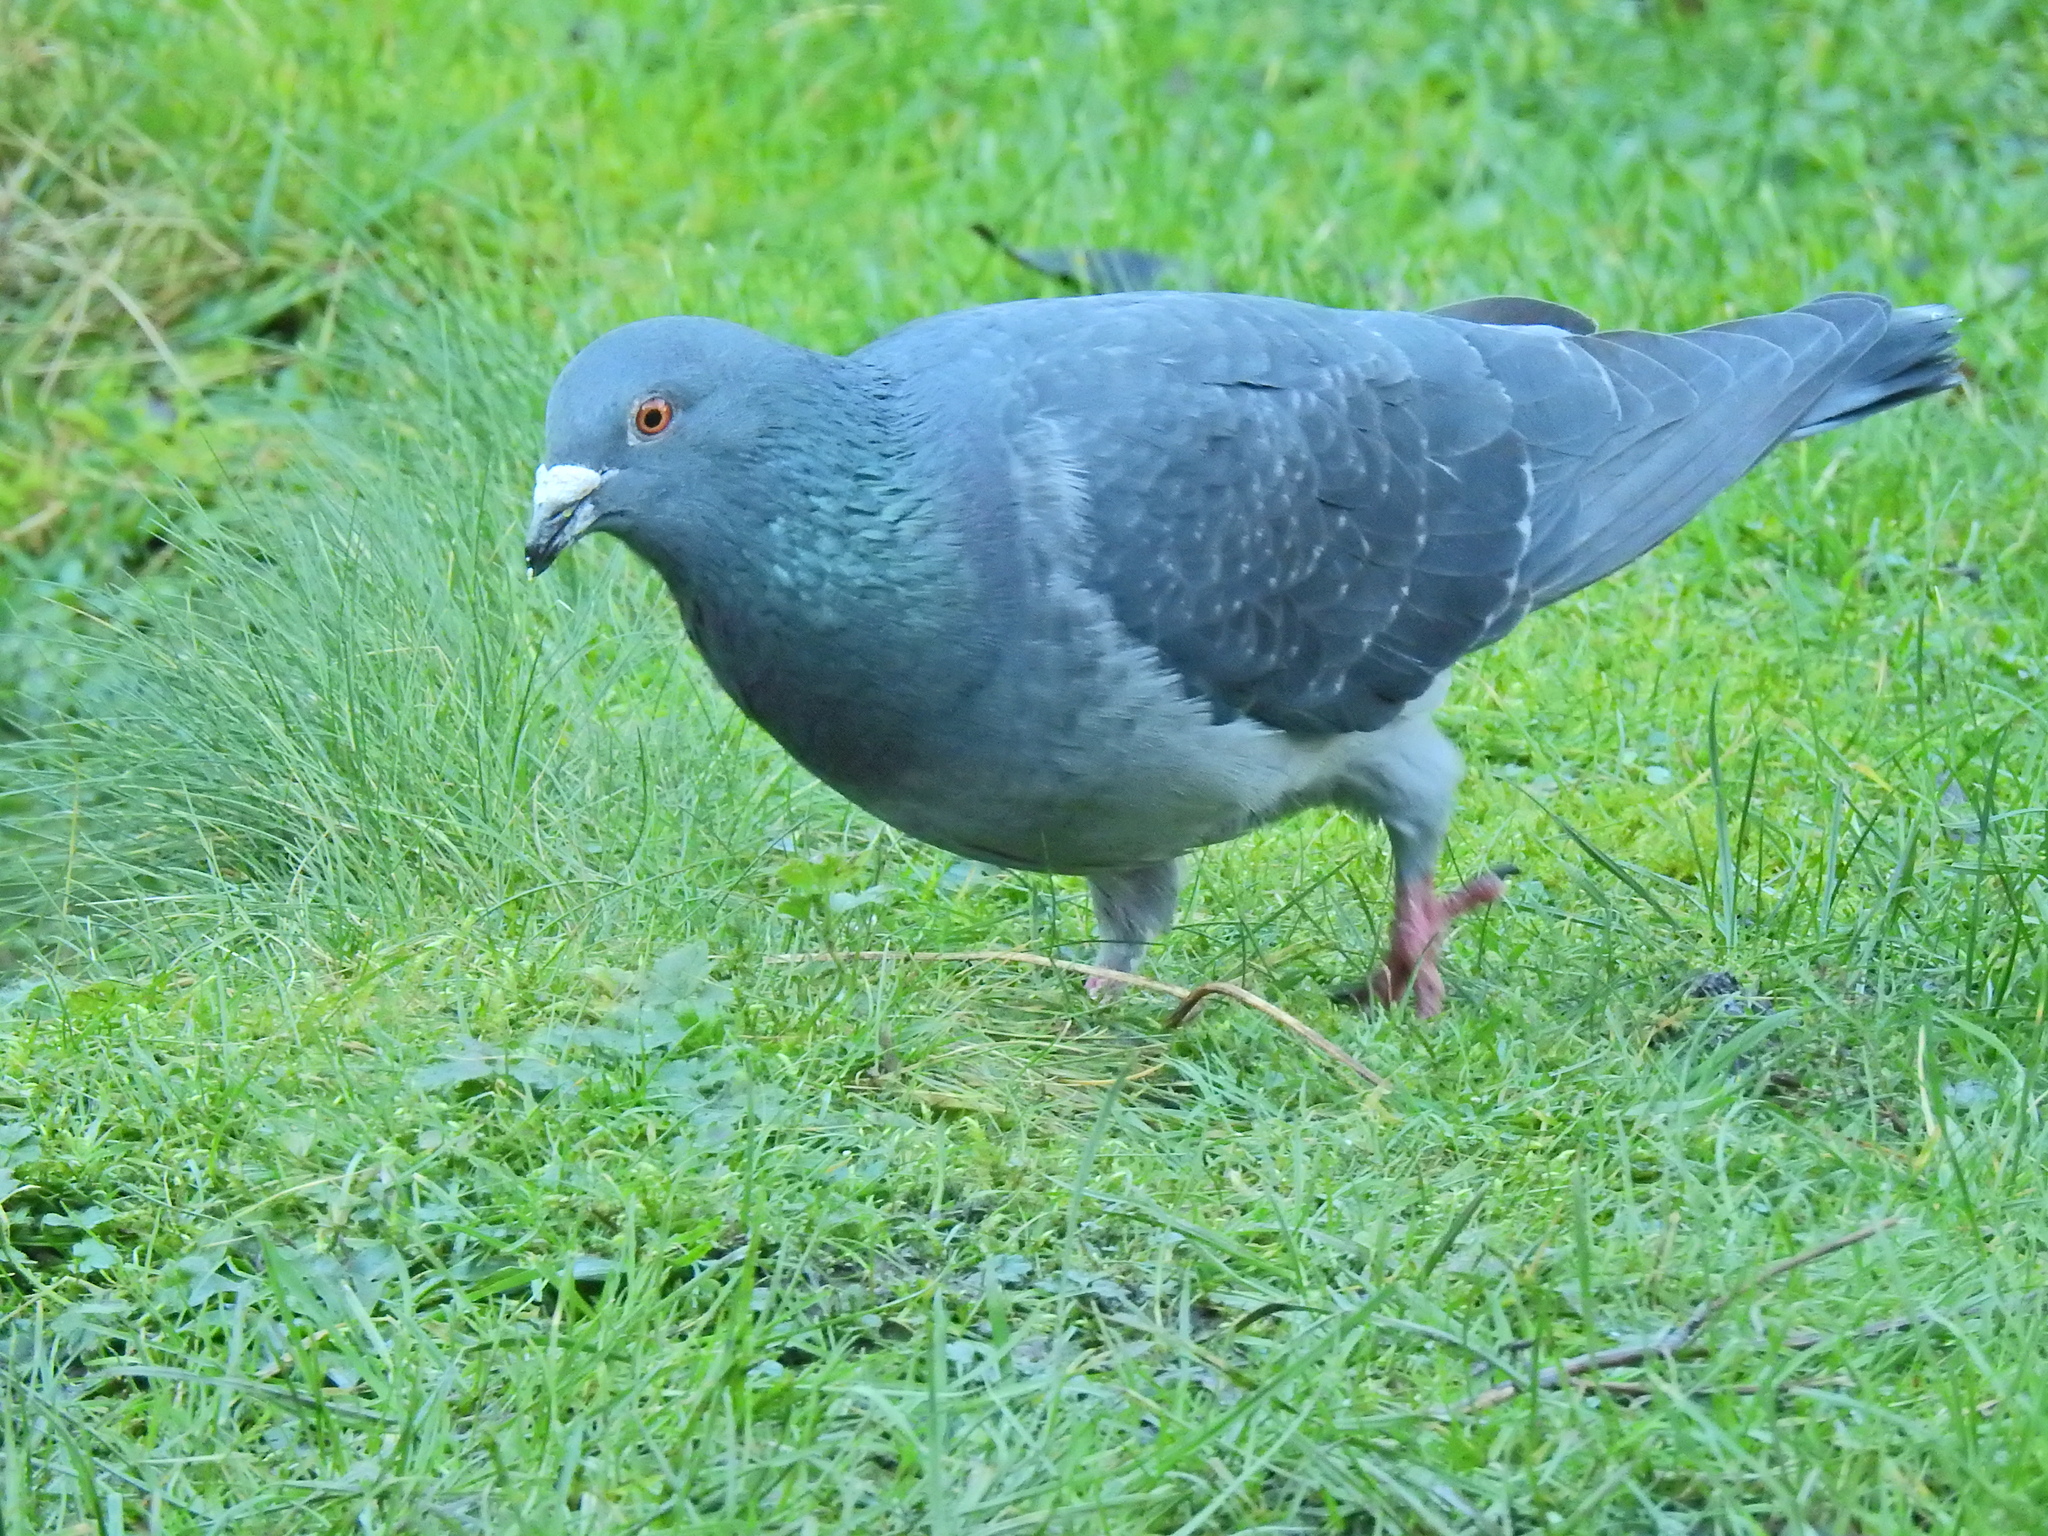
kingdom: Animalia
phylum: Chordata
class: Aves
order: Columbiformes
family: Columbidae
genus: Columba
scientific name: Columba livia
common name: Rock pigeon
